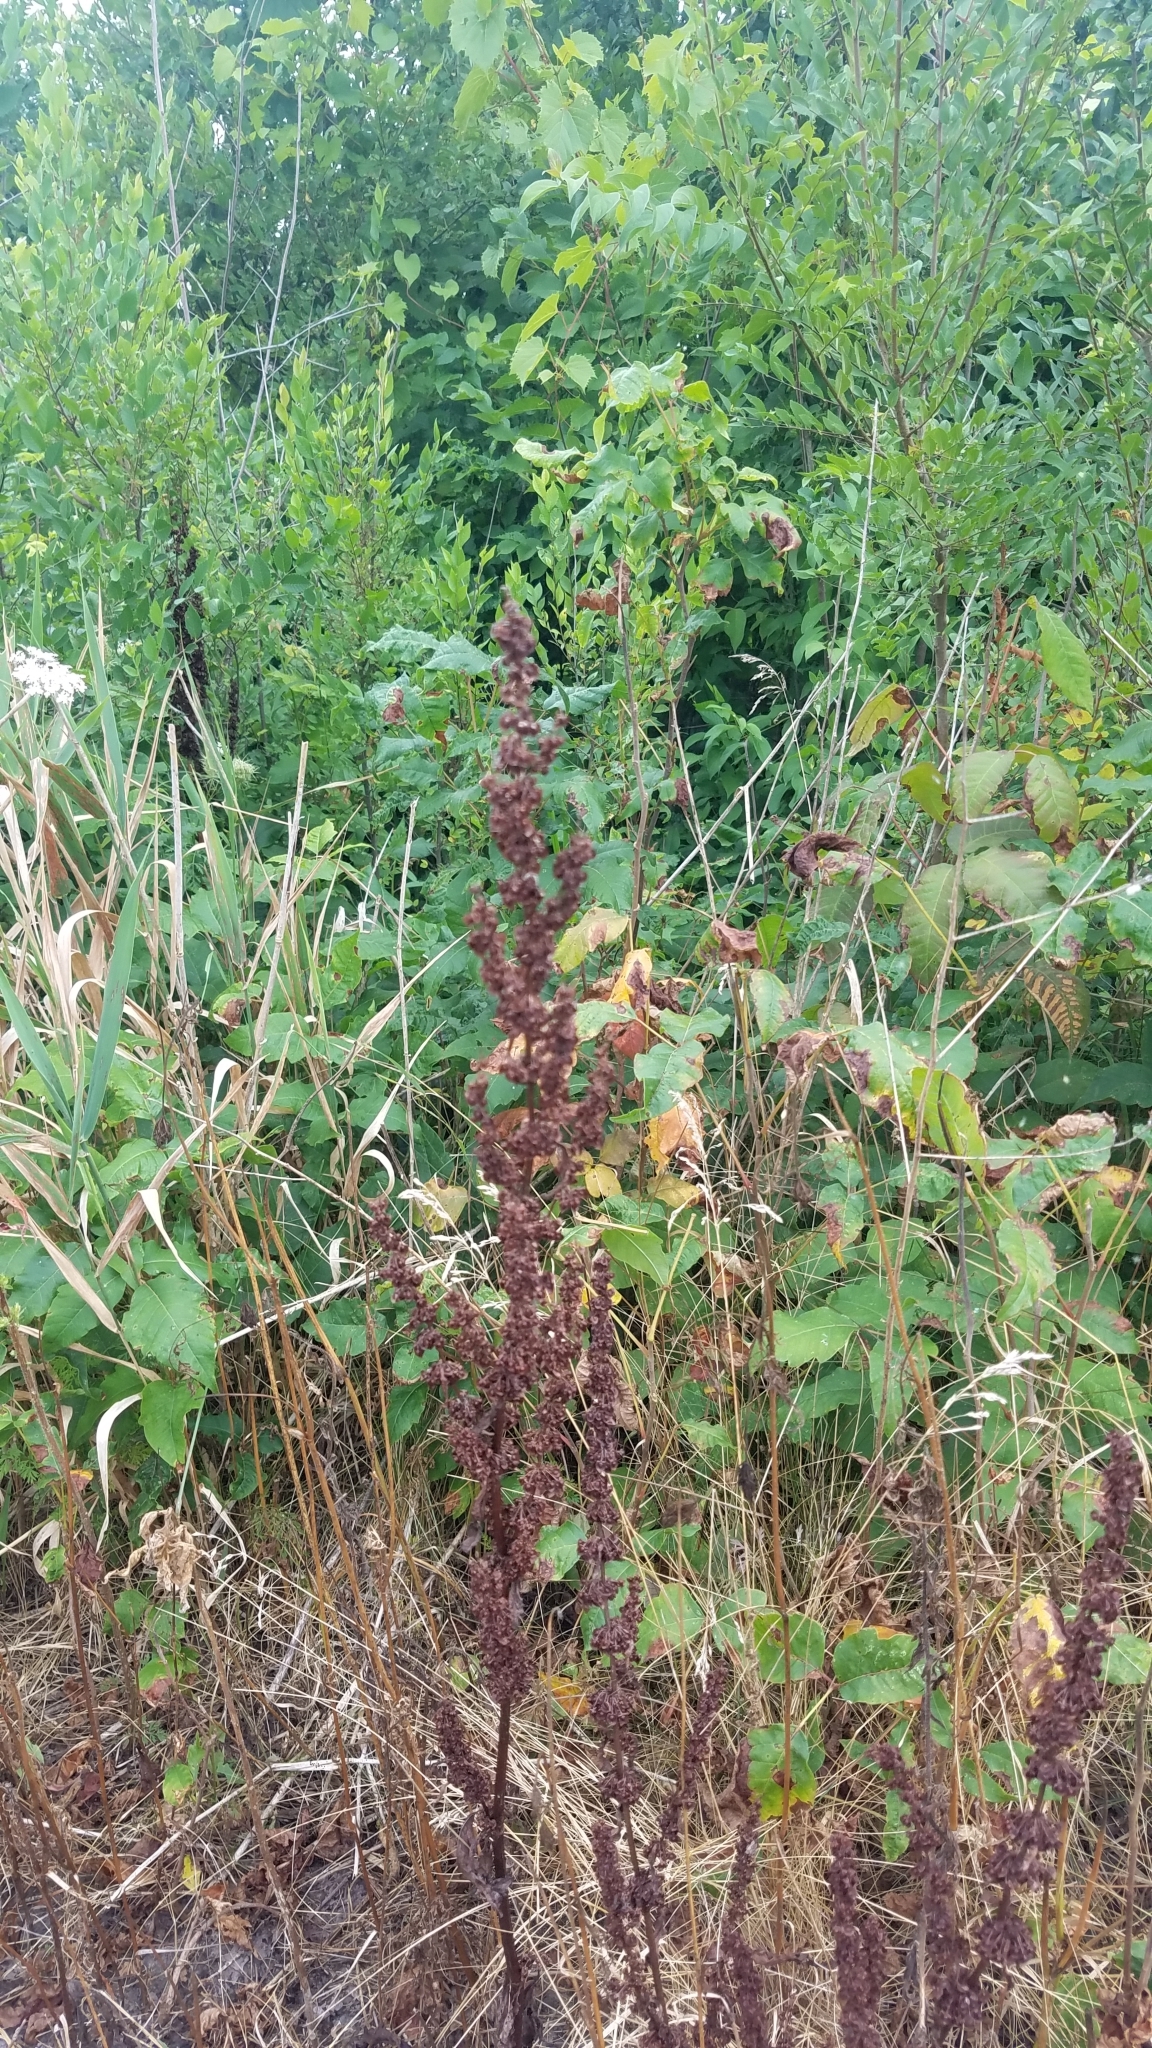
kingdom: Plantae
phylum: Tracheophyta
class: Magnoliopsida
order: Caryophyllales
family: Polygonaceae
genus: Rumex
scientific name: Rumex crispus
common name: Curled dock
